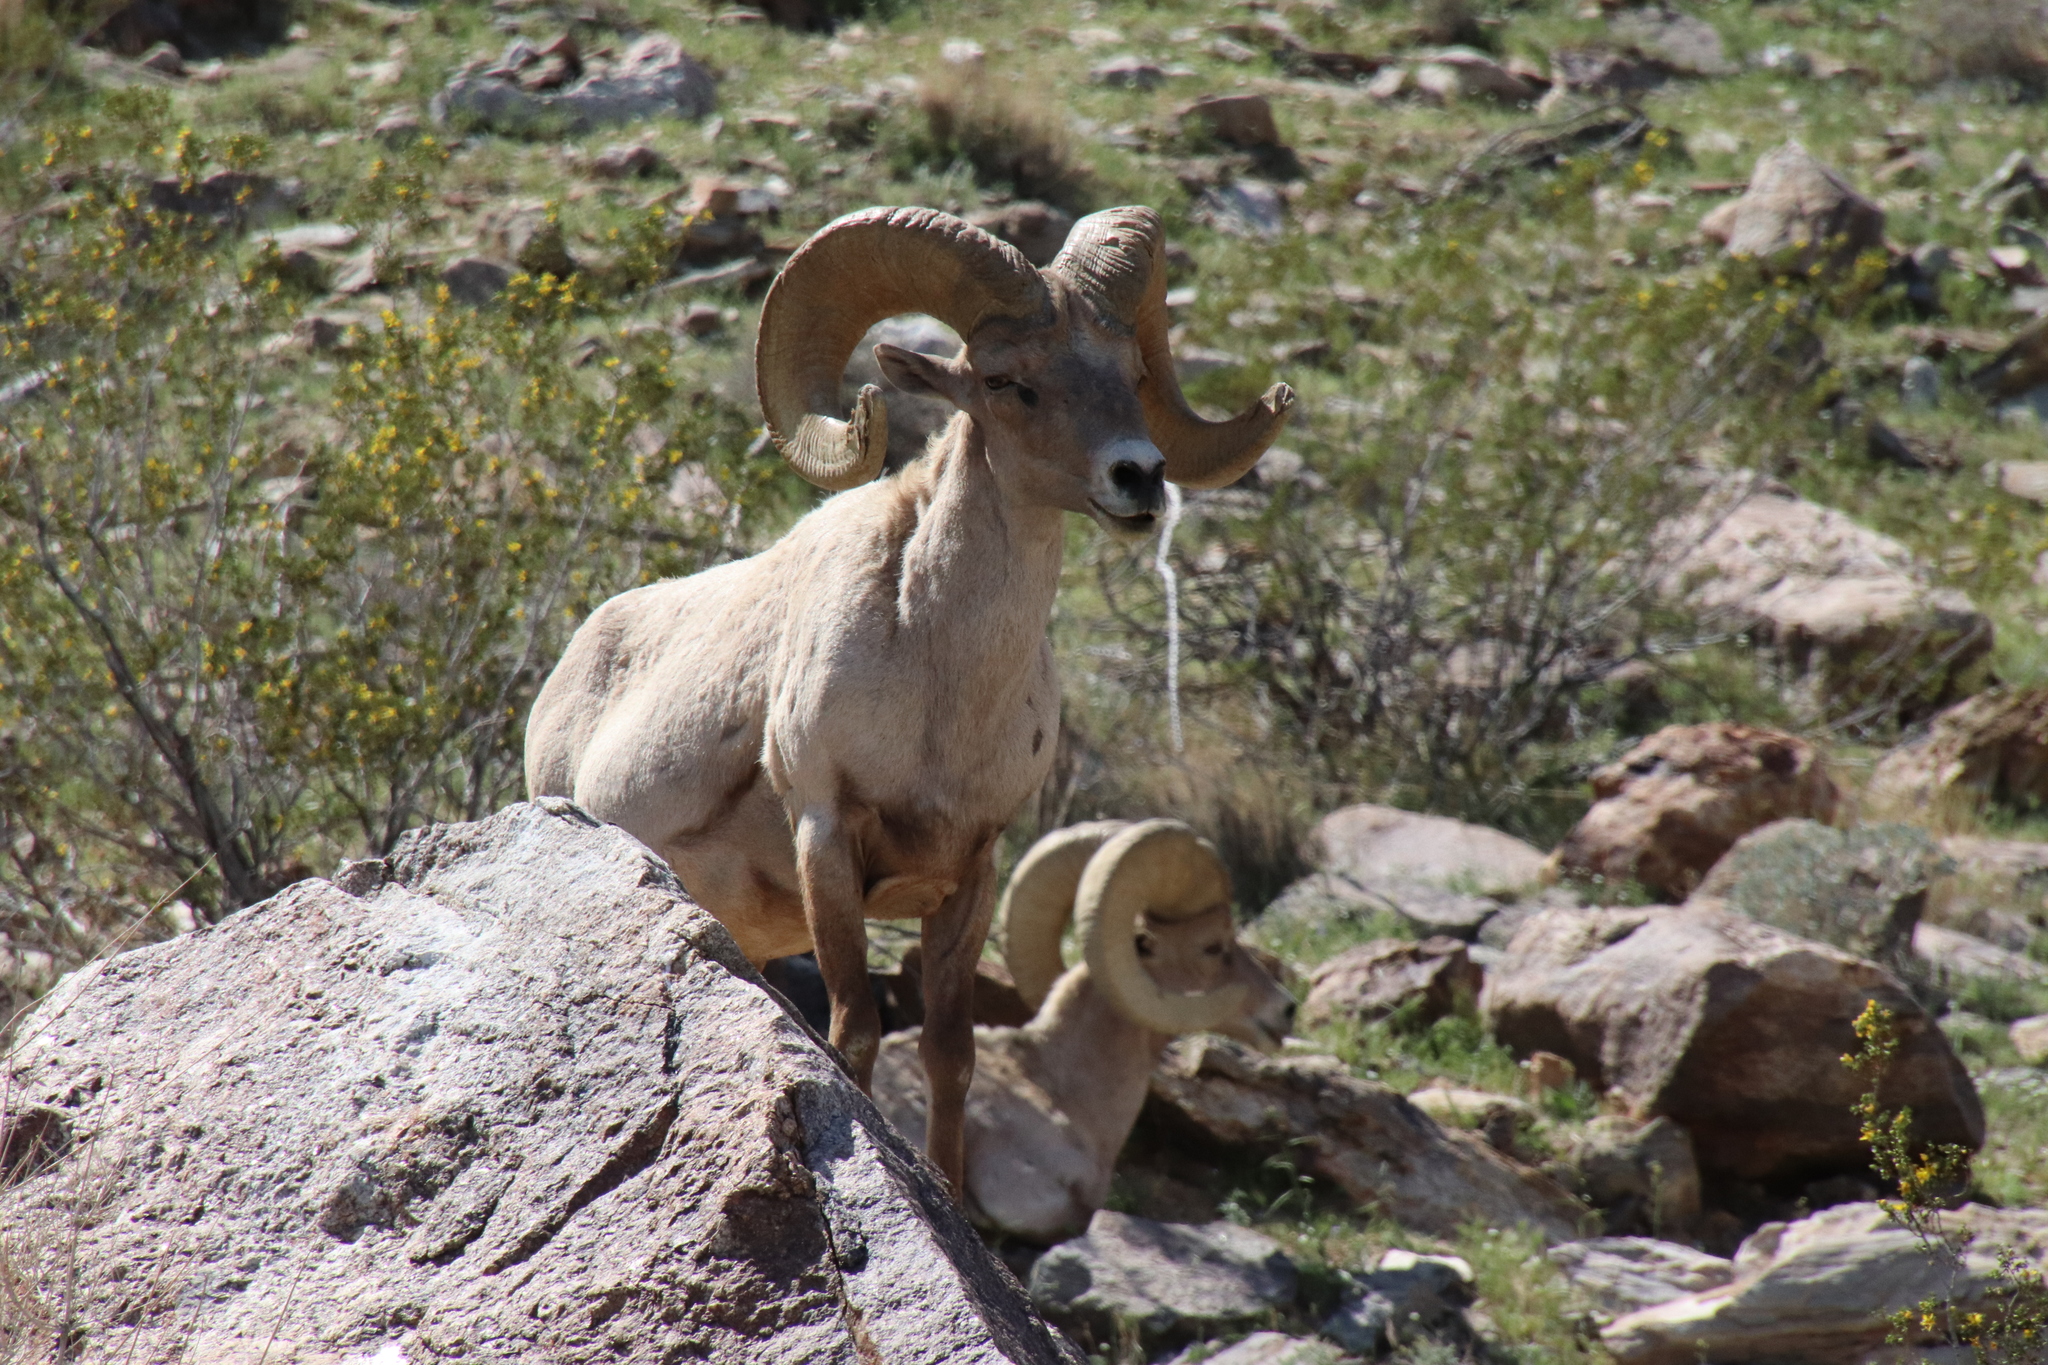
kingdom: Animalia
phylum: Chordata
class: Mammalia
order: Artiodactyla
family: Bovidae
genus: Ovis
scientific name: Ovis canadensis
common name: Bighorn sheep
